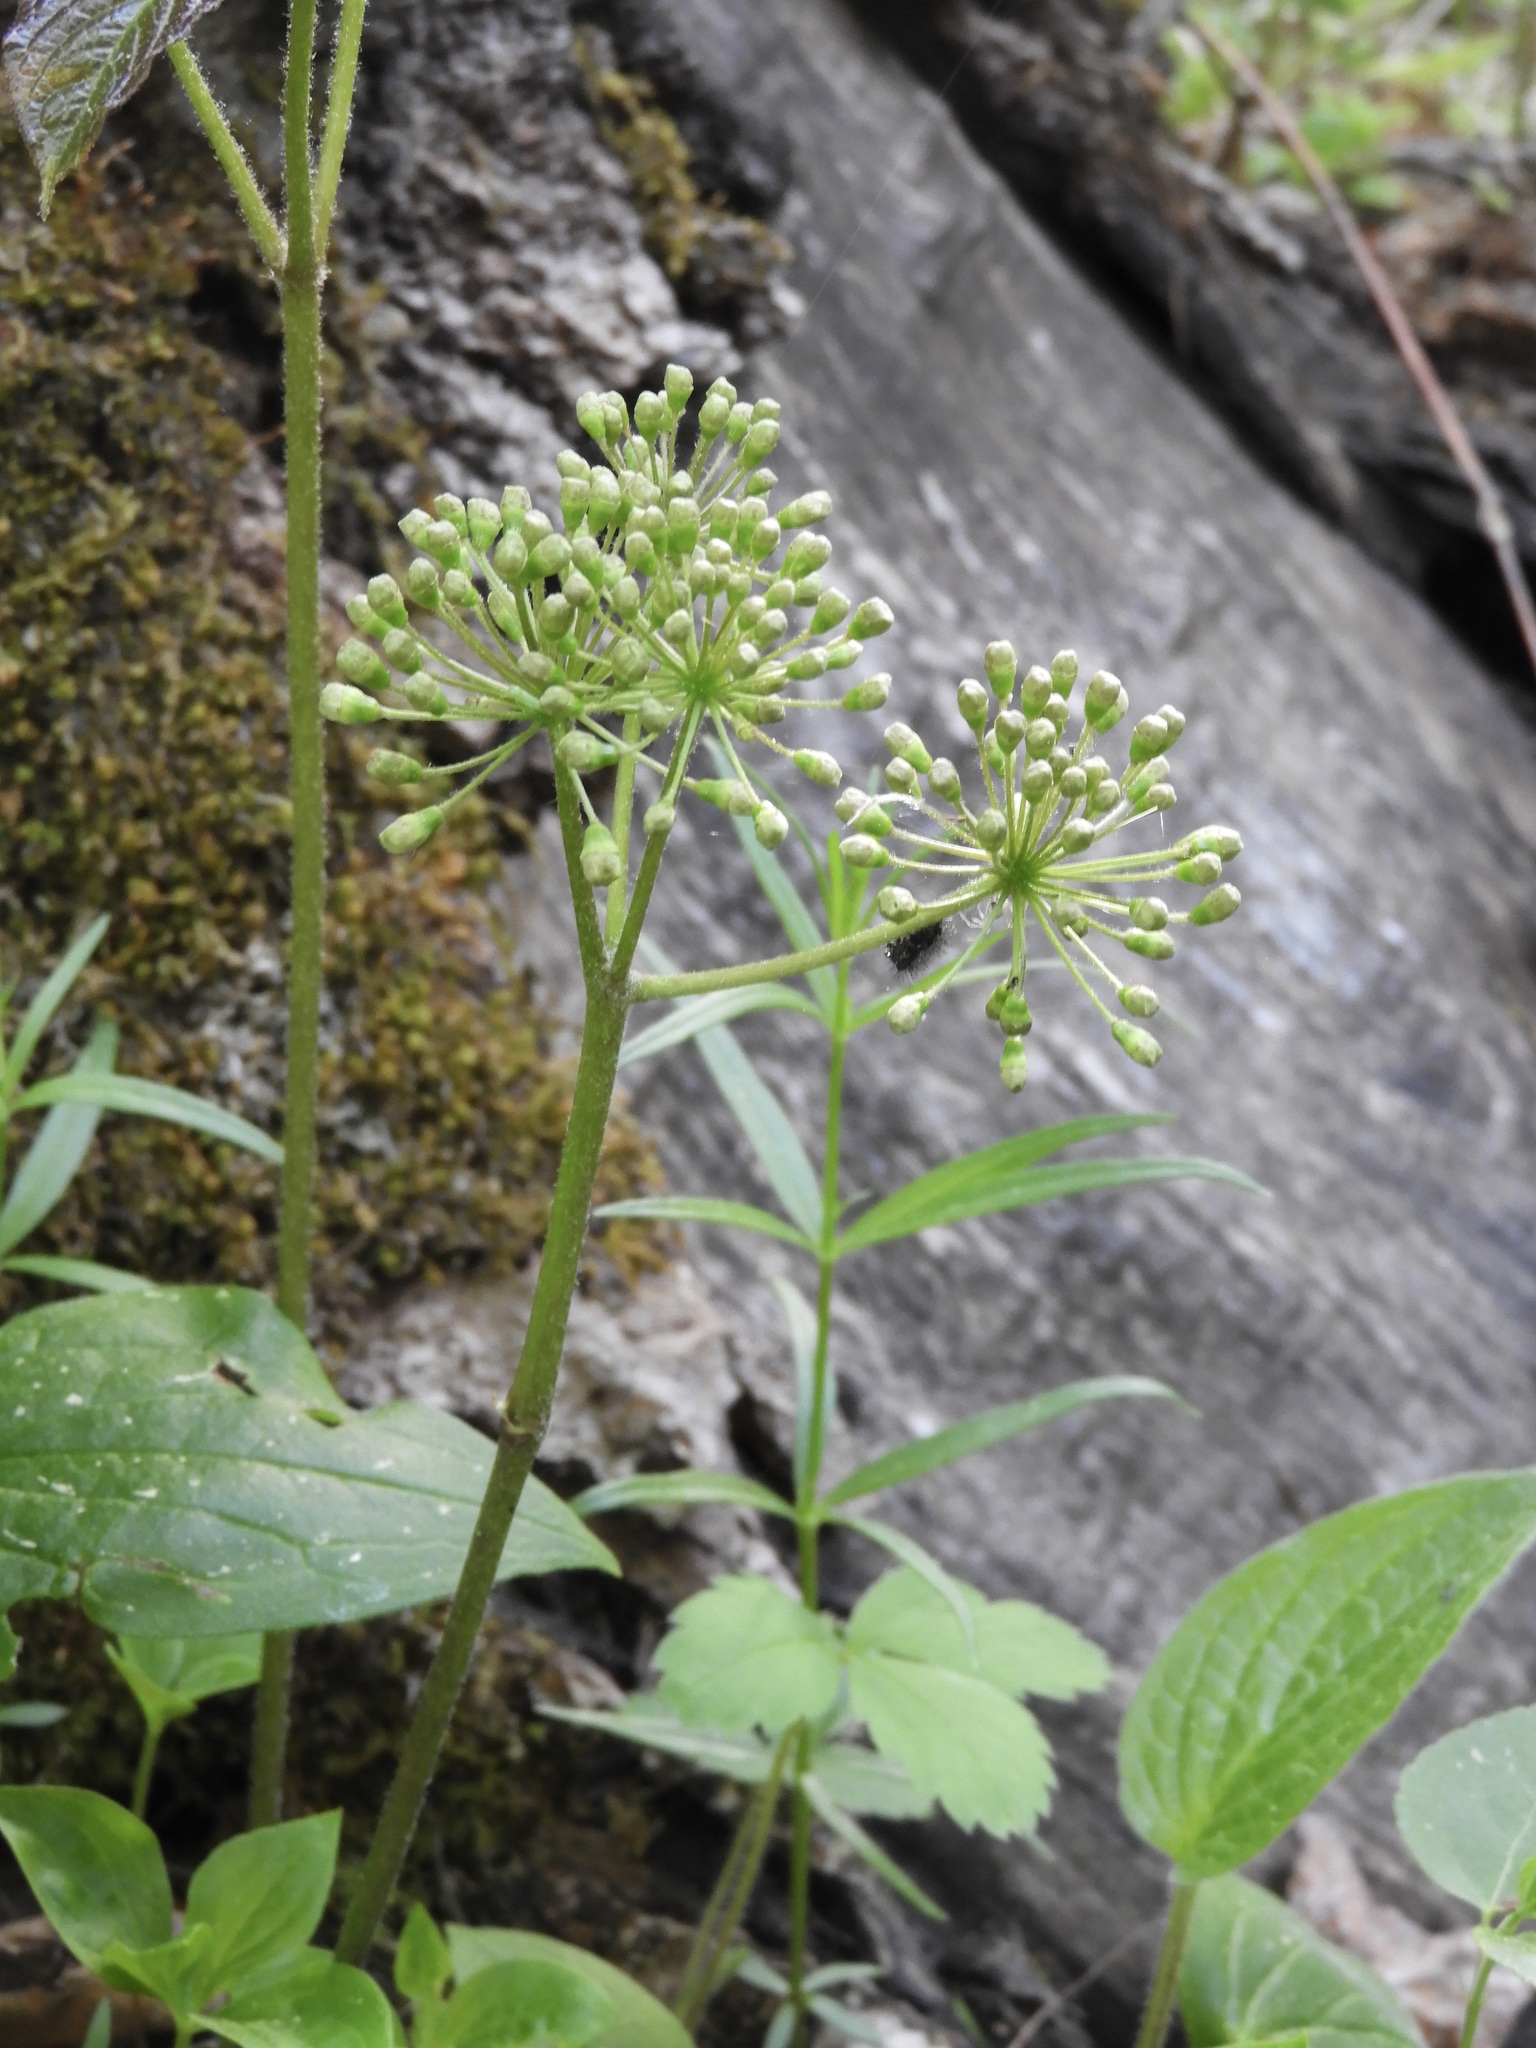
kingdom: Plantae
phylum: Tracheophyta
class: Magnoliopsida
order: Apiales
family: Araliaceae
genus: Aralia
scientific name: Aralia nudicaulis
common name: Wild sarsaparilla
